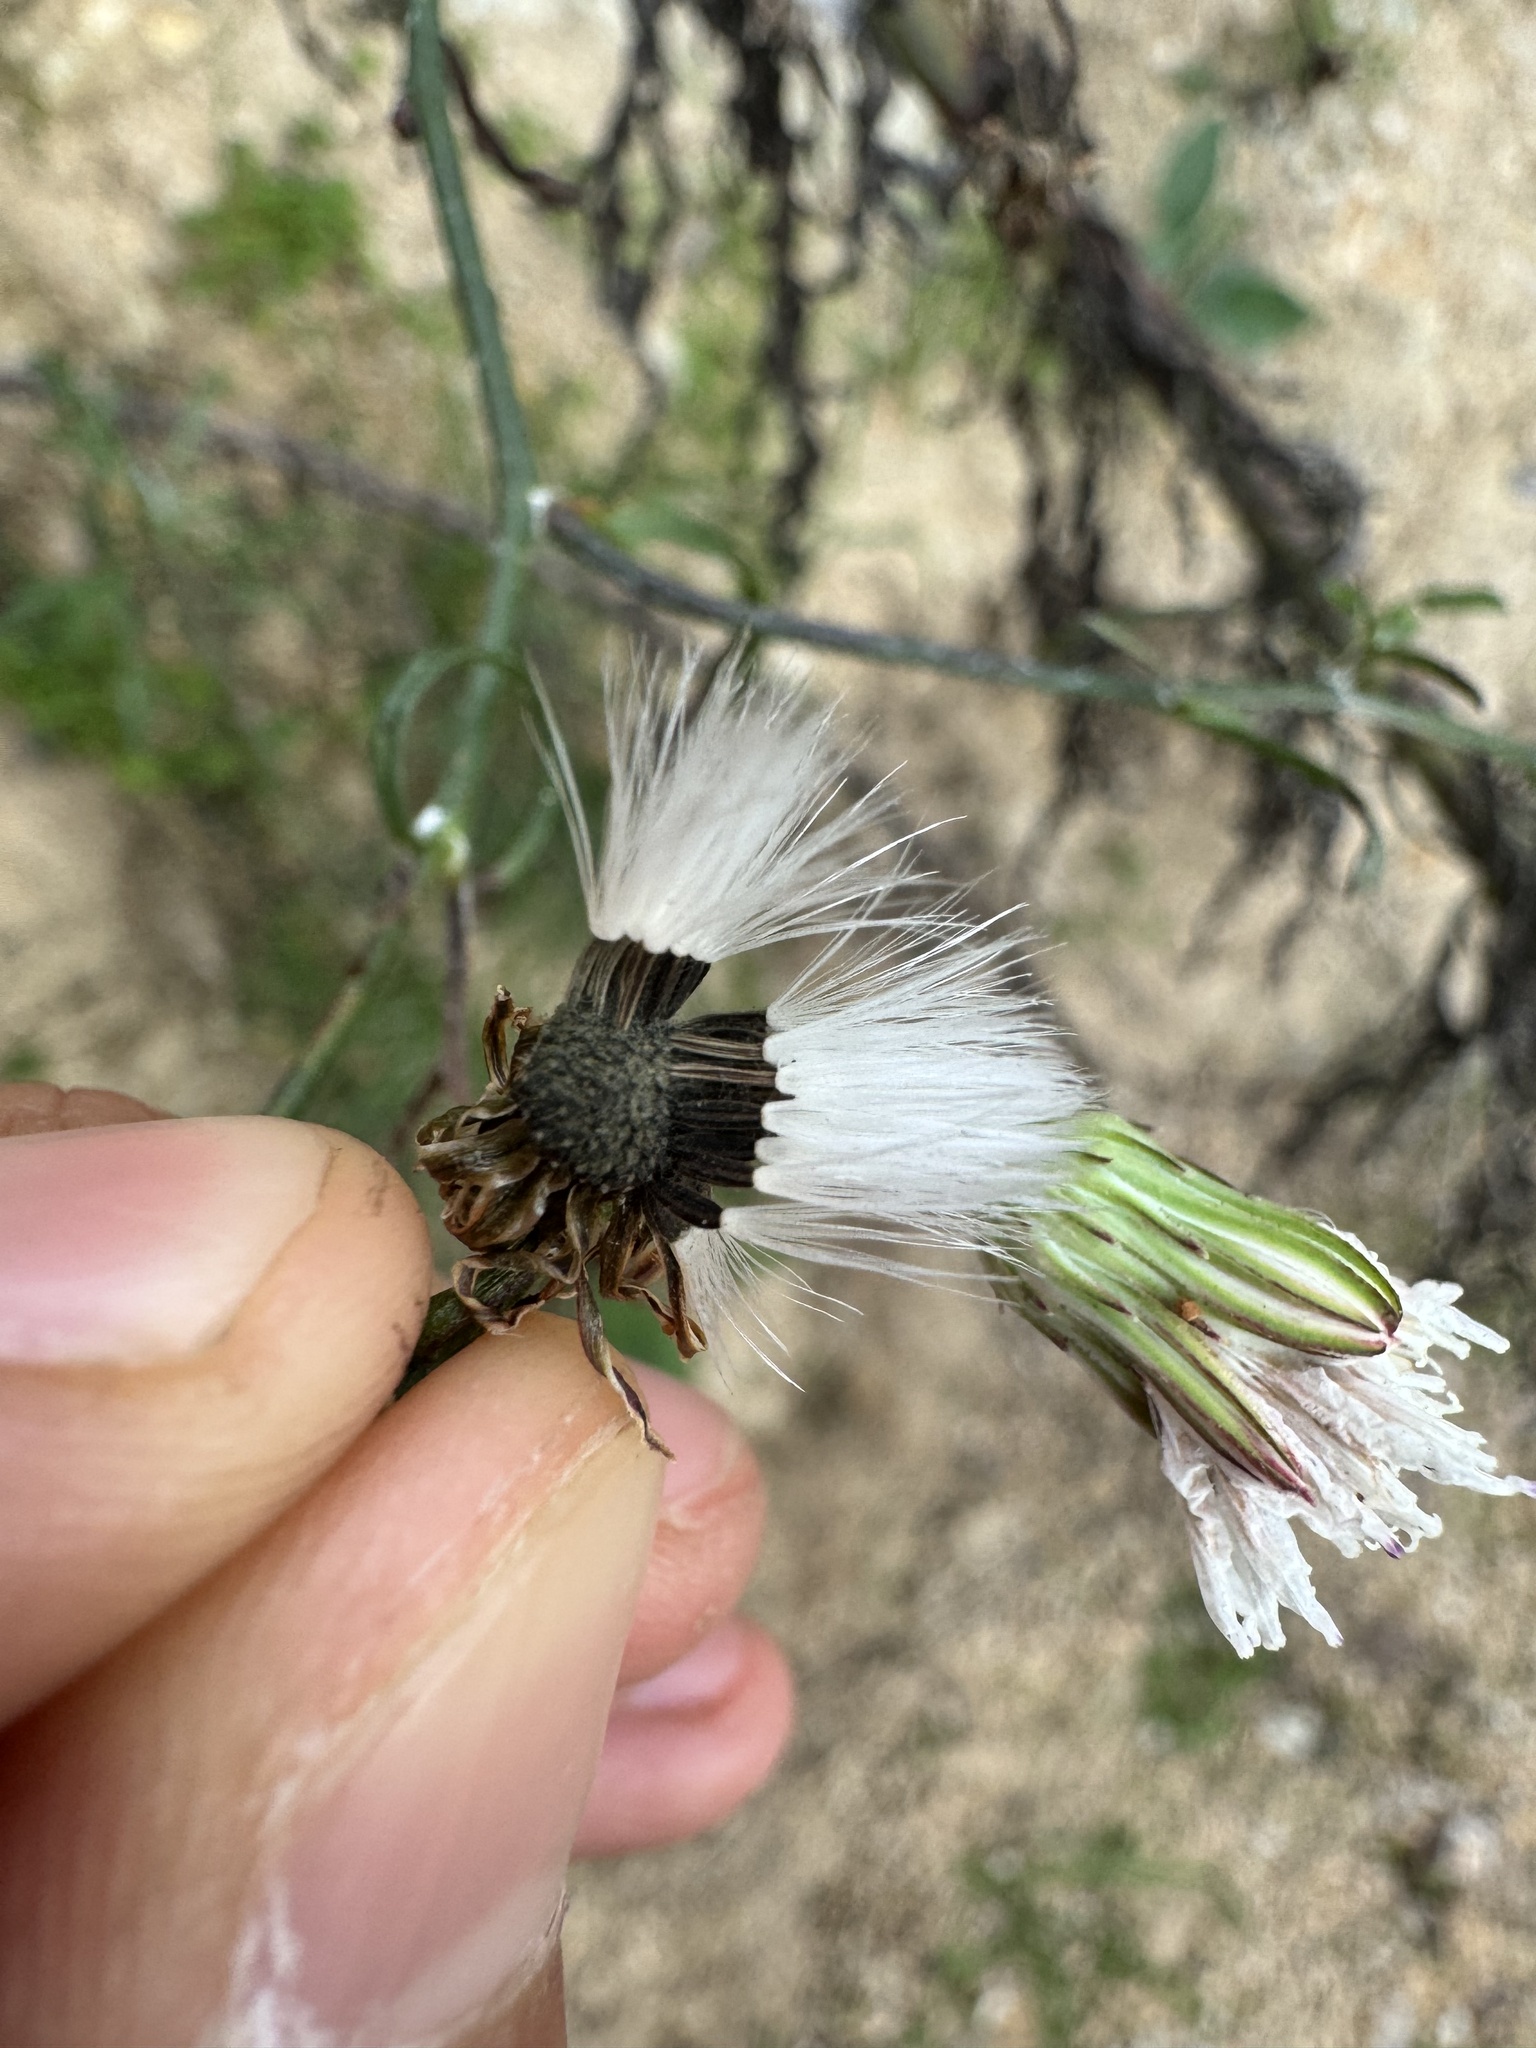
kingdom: Plantae
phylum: Tracheophyta
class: Magnoliopsida
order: Asterales
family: Asteraceae
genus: Malacothrix
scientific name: Malacothrix saxatilis
